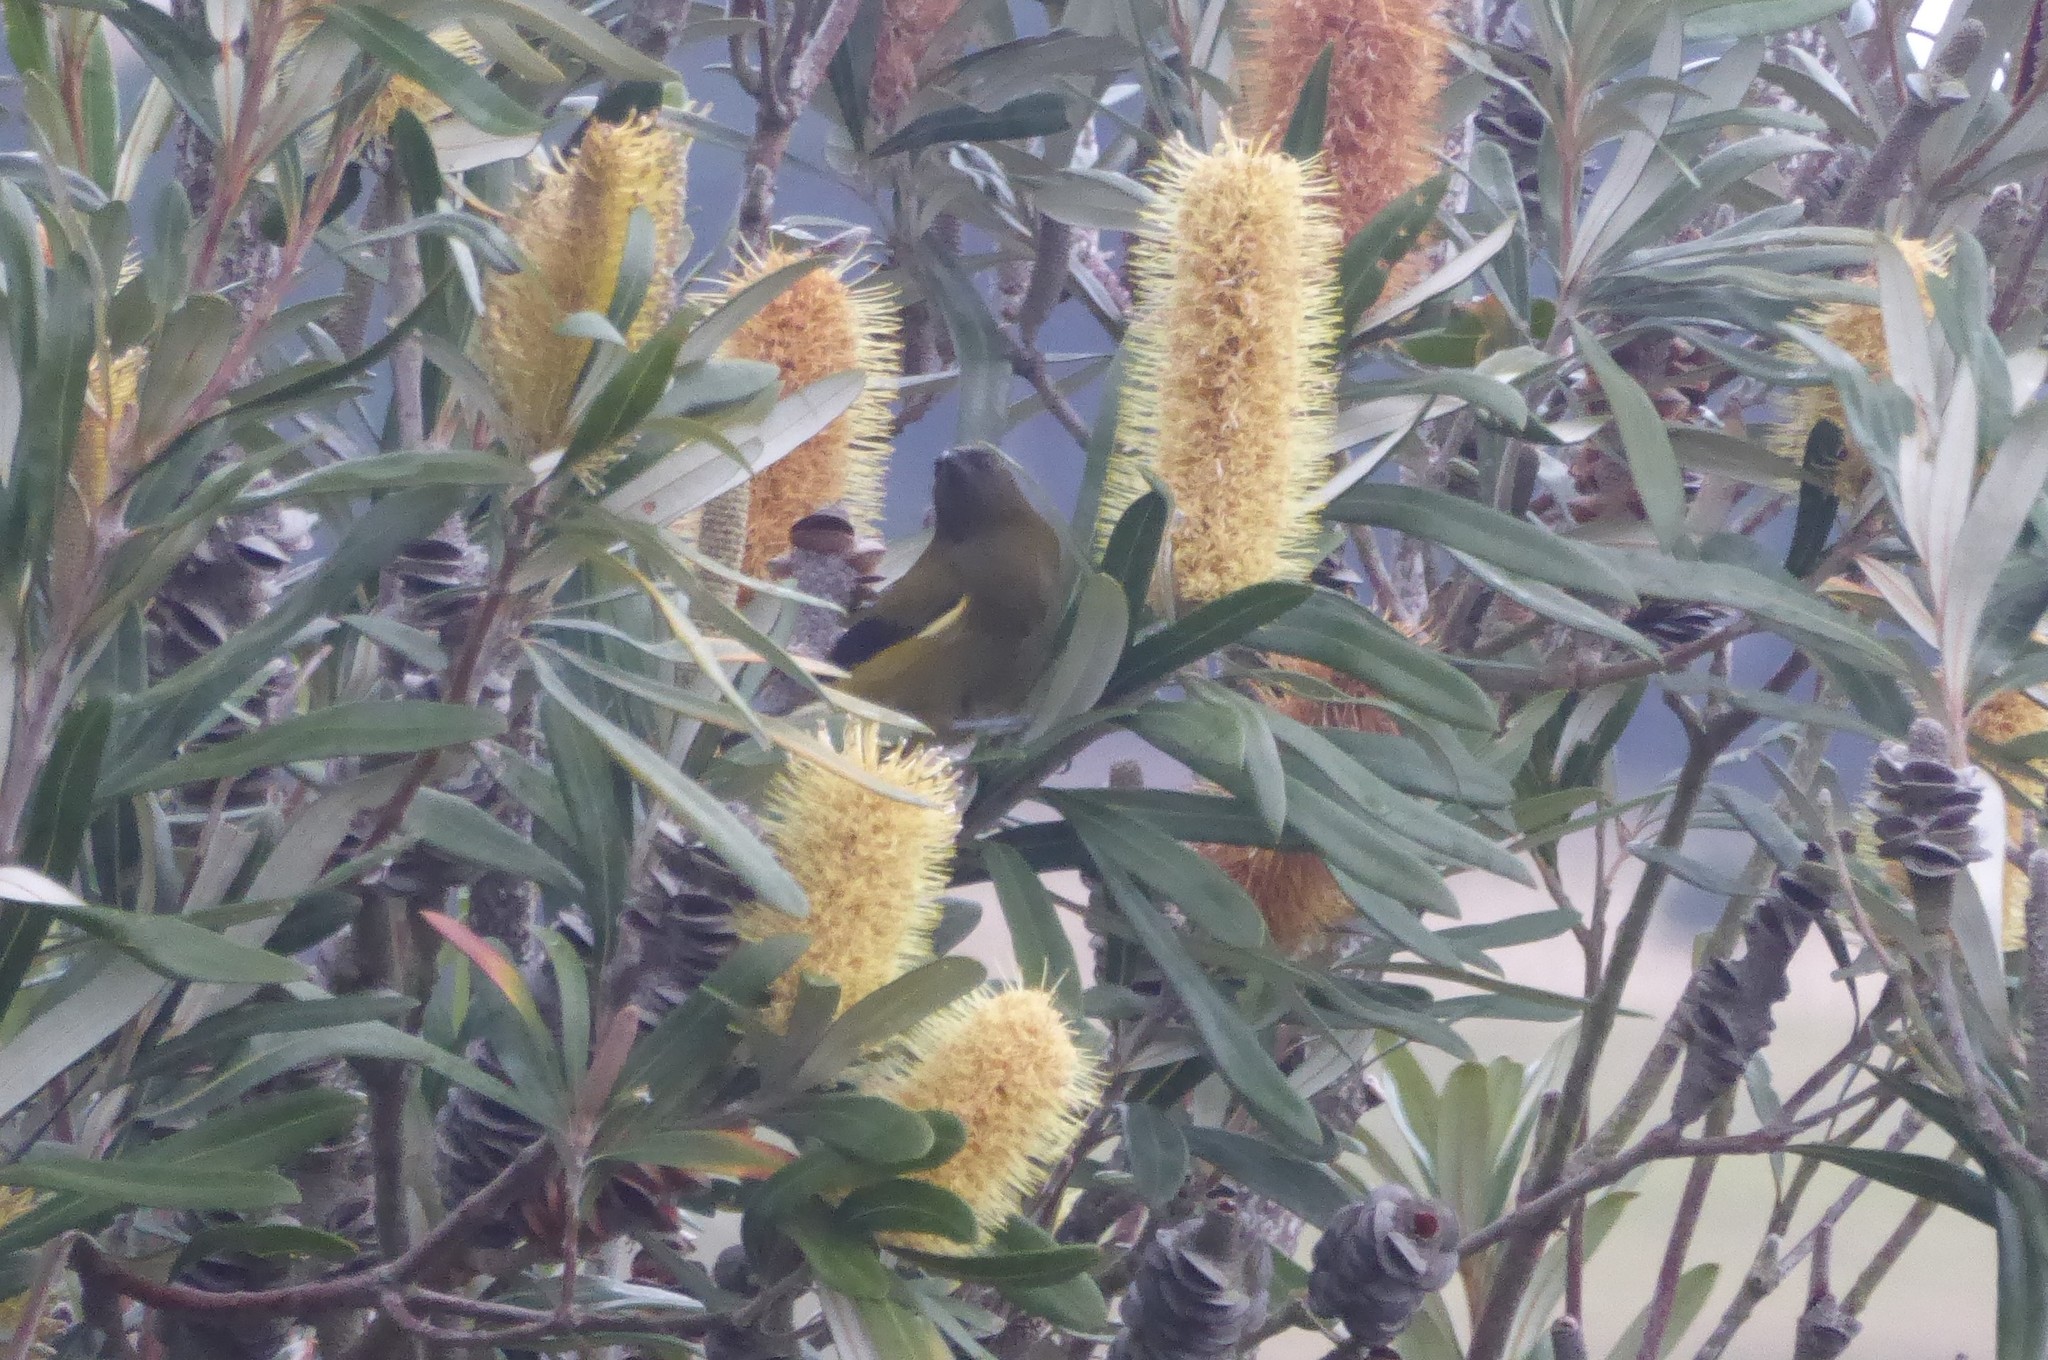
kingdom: Animalia
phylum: Chordata
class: Aves
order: Passeriformes
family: Meliphagidae
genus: Anthornis
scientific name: Anthornis melanura
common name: New zealand bellbird
